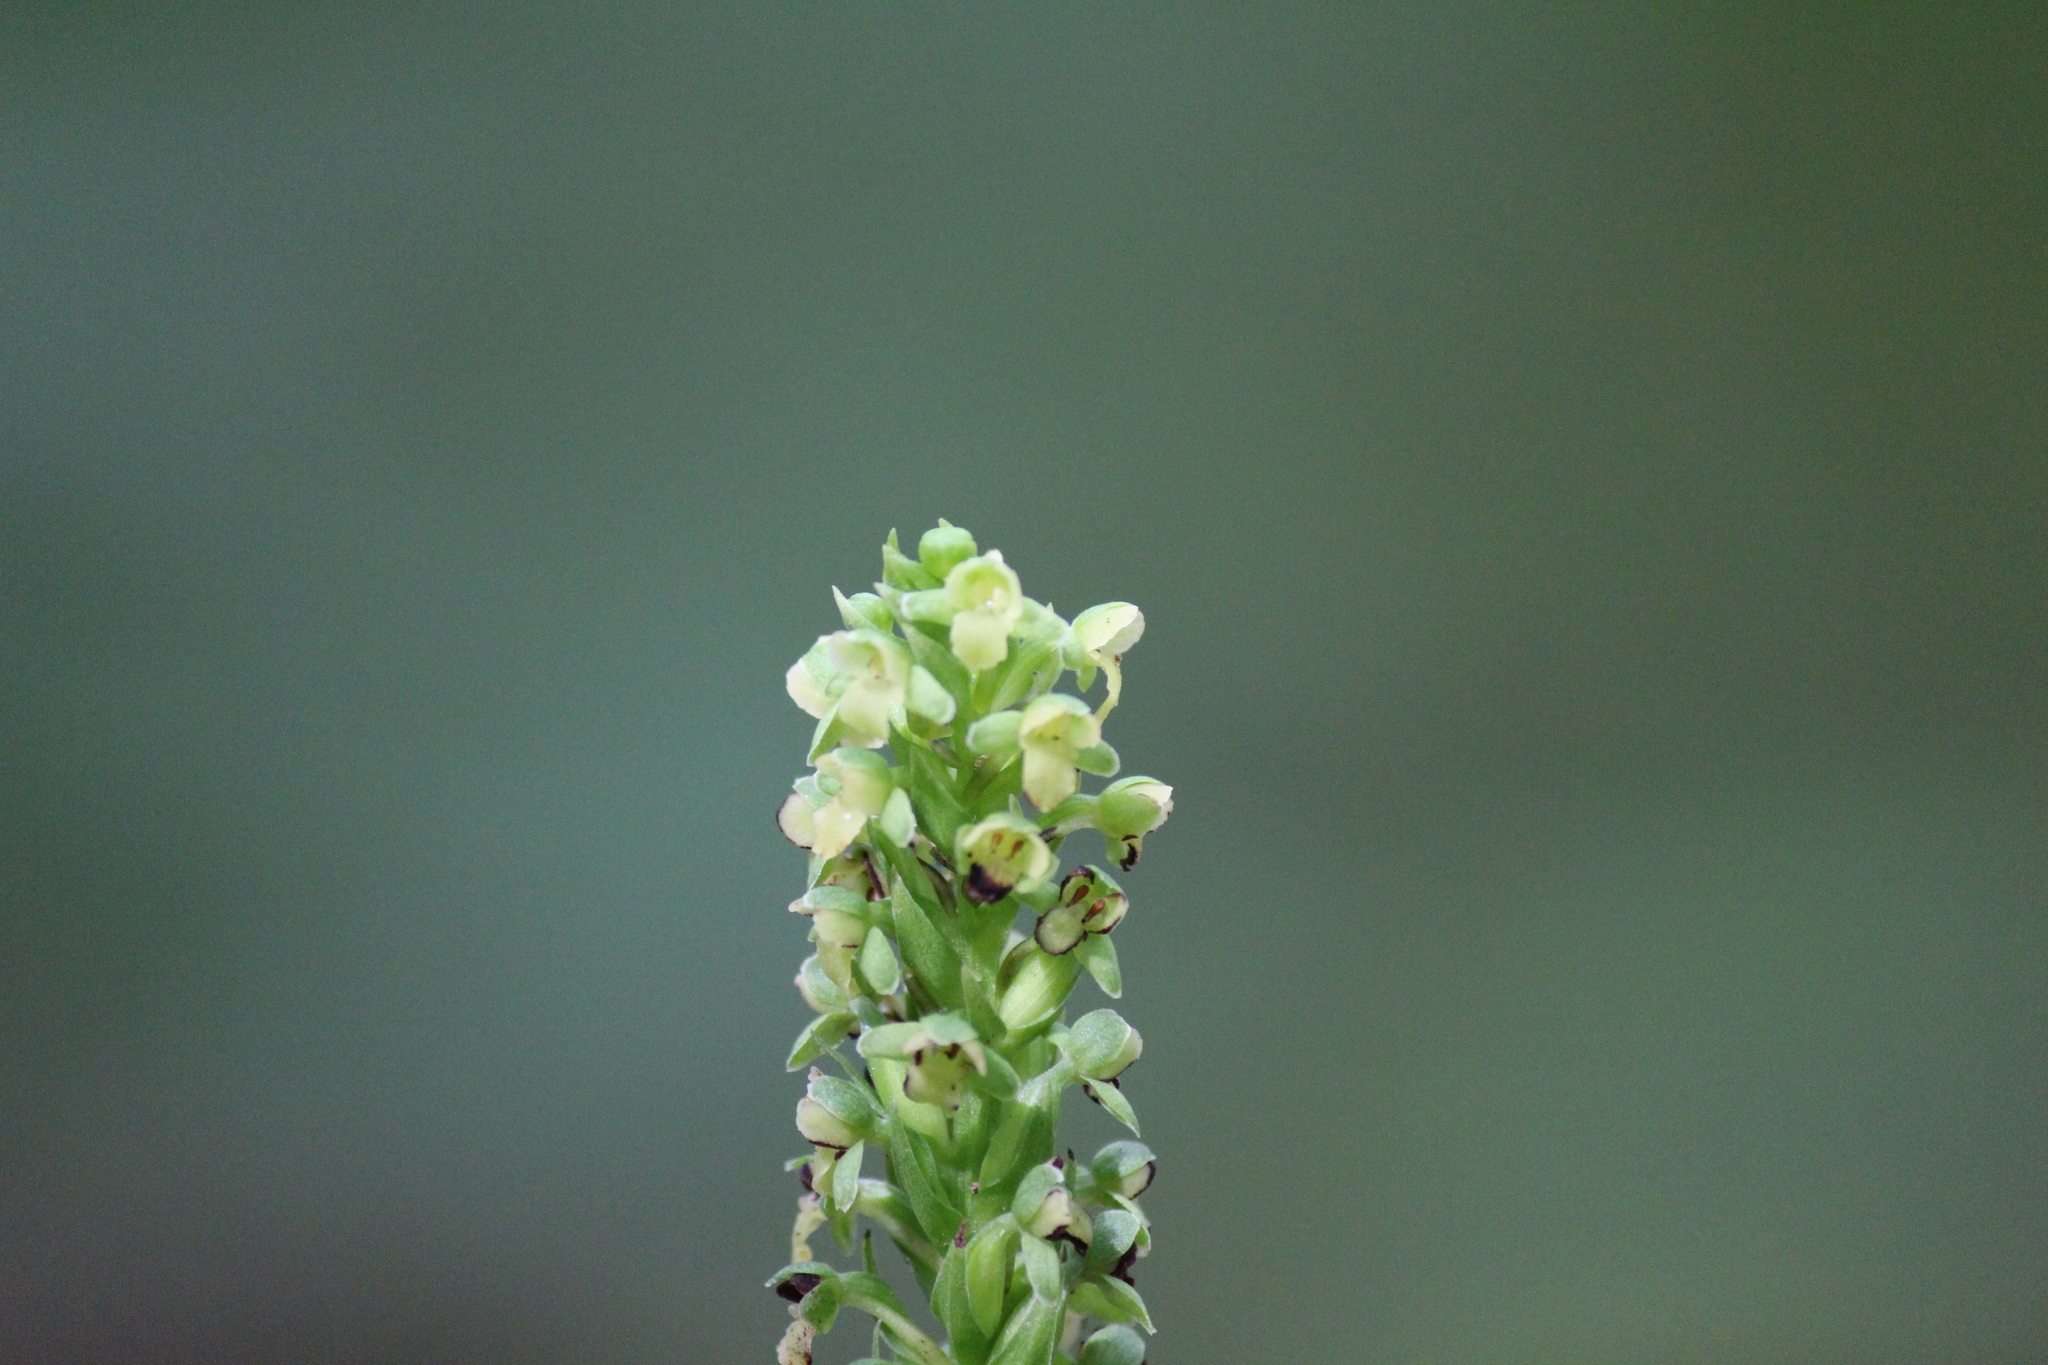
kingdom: Plantae
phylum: Tracheophyta
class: Liliopsida
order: Asparagales
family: Orchidaceae
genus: Platanthera
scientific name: Platanthera flava
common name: Gypsy-spikes
